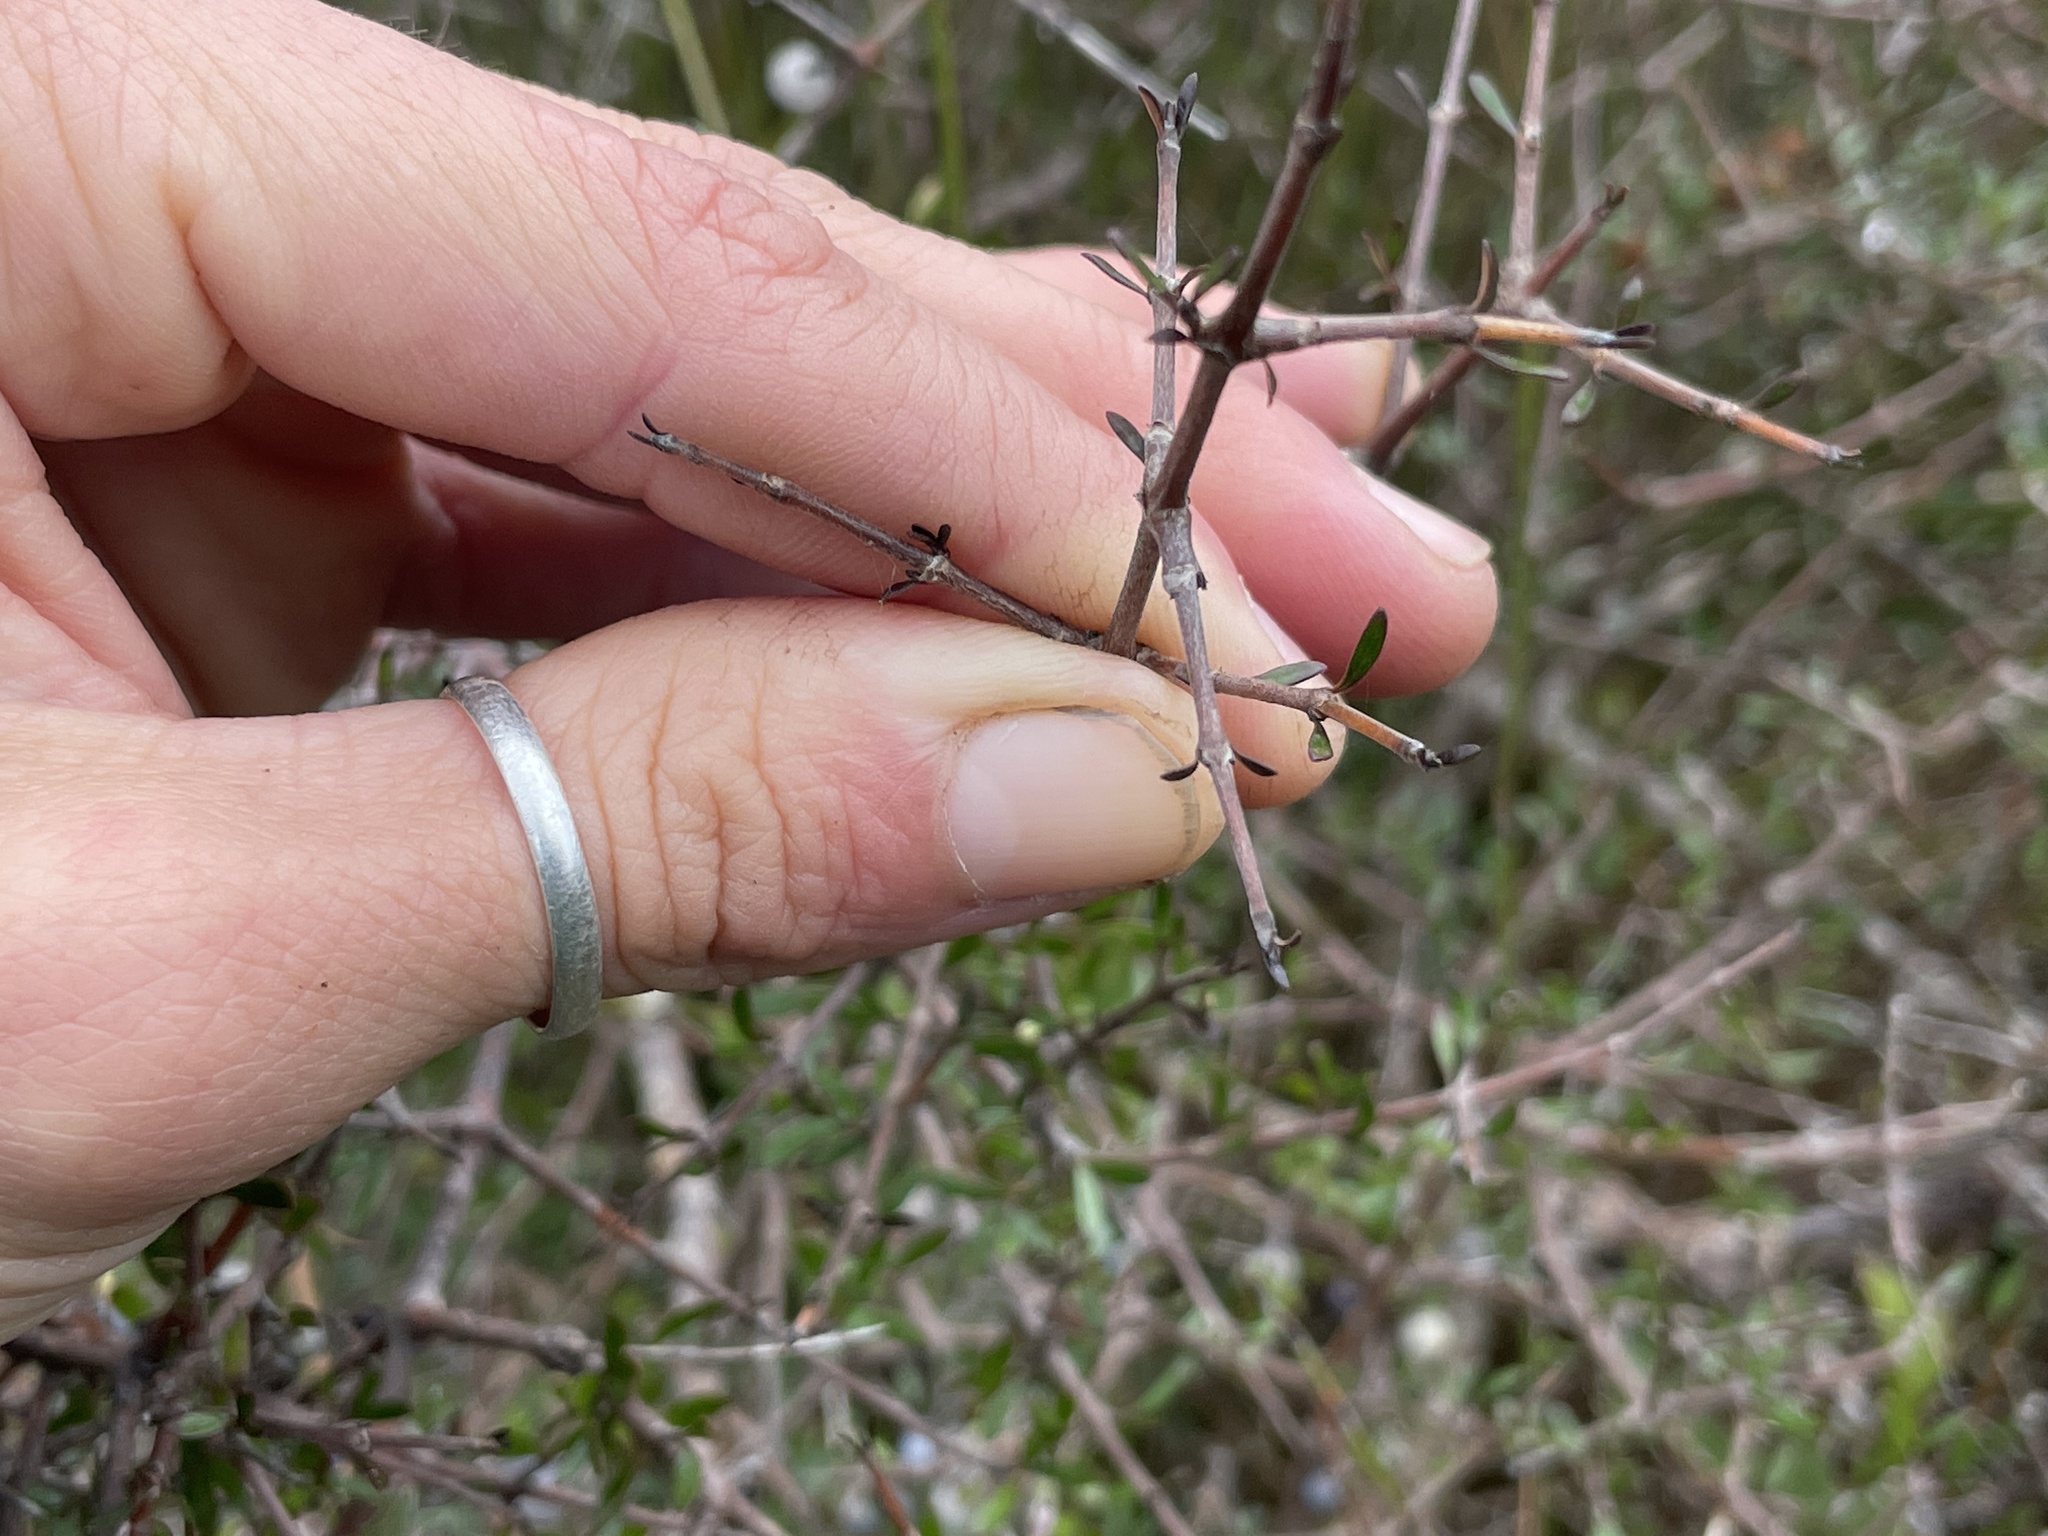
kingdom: Plantae
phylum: Tracheophyta
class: Magnoliopsida
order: Gentianales
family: Rubiaceae
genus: Coprosma
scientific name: Coprosma propinqua
